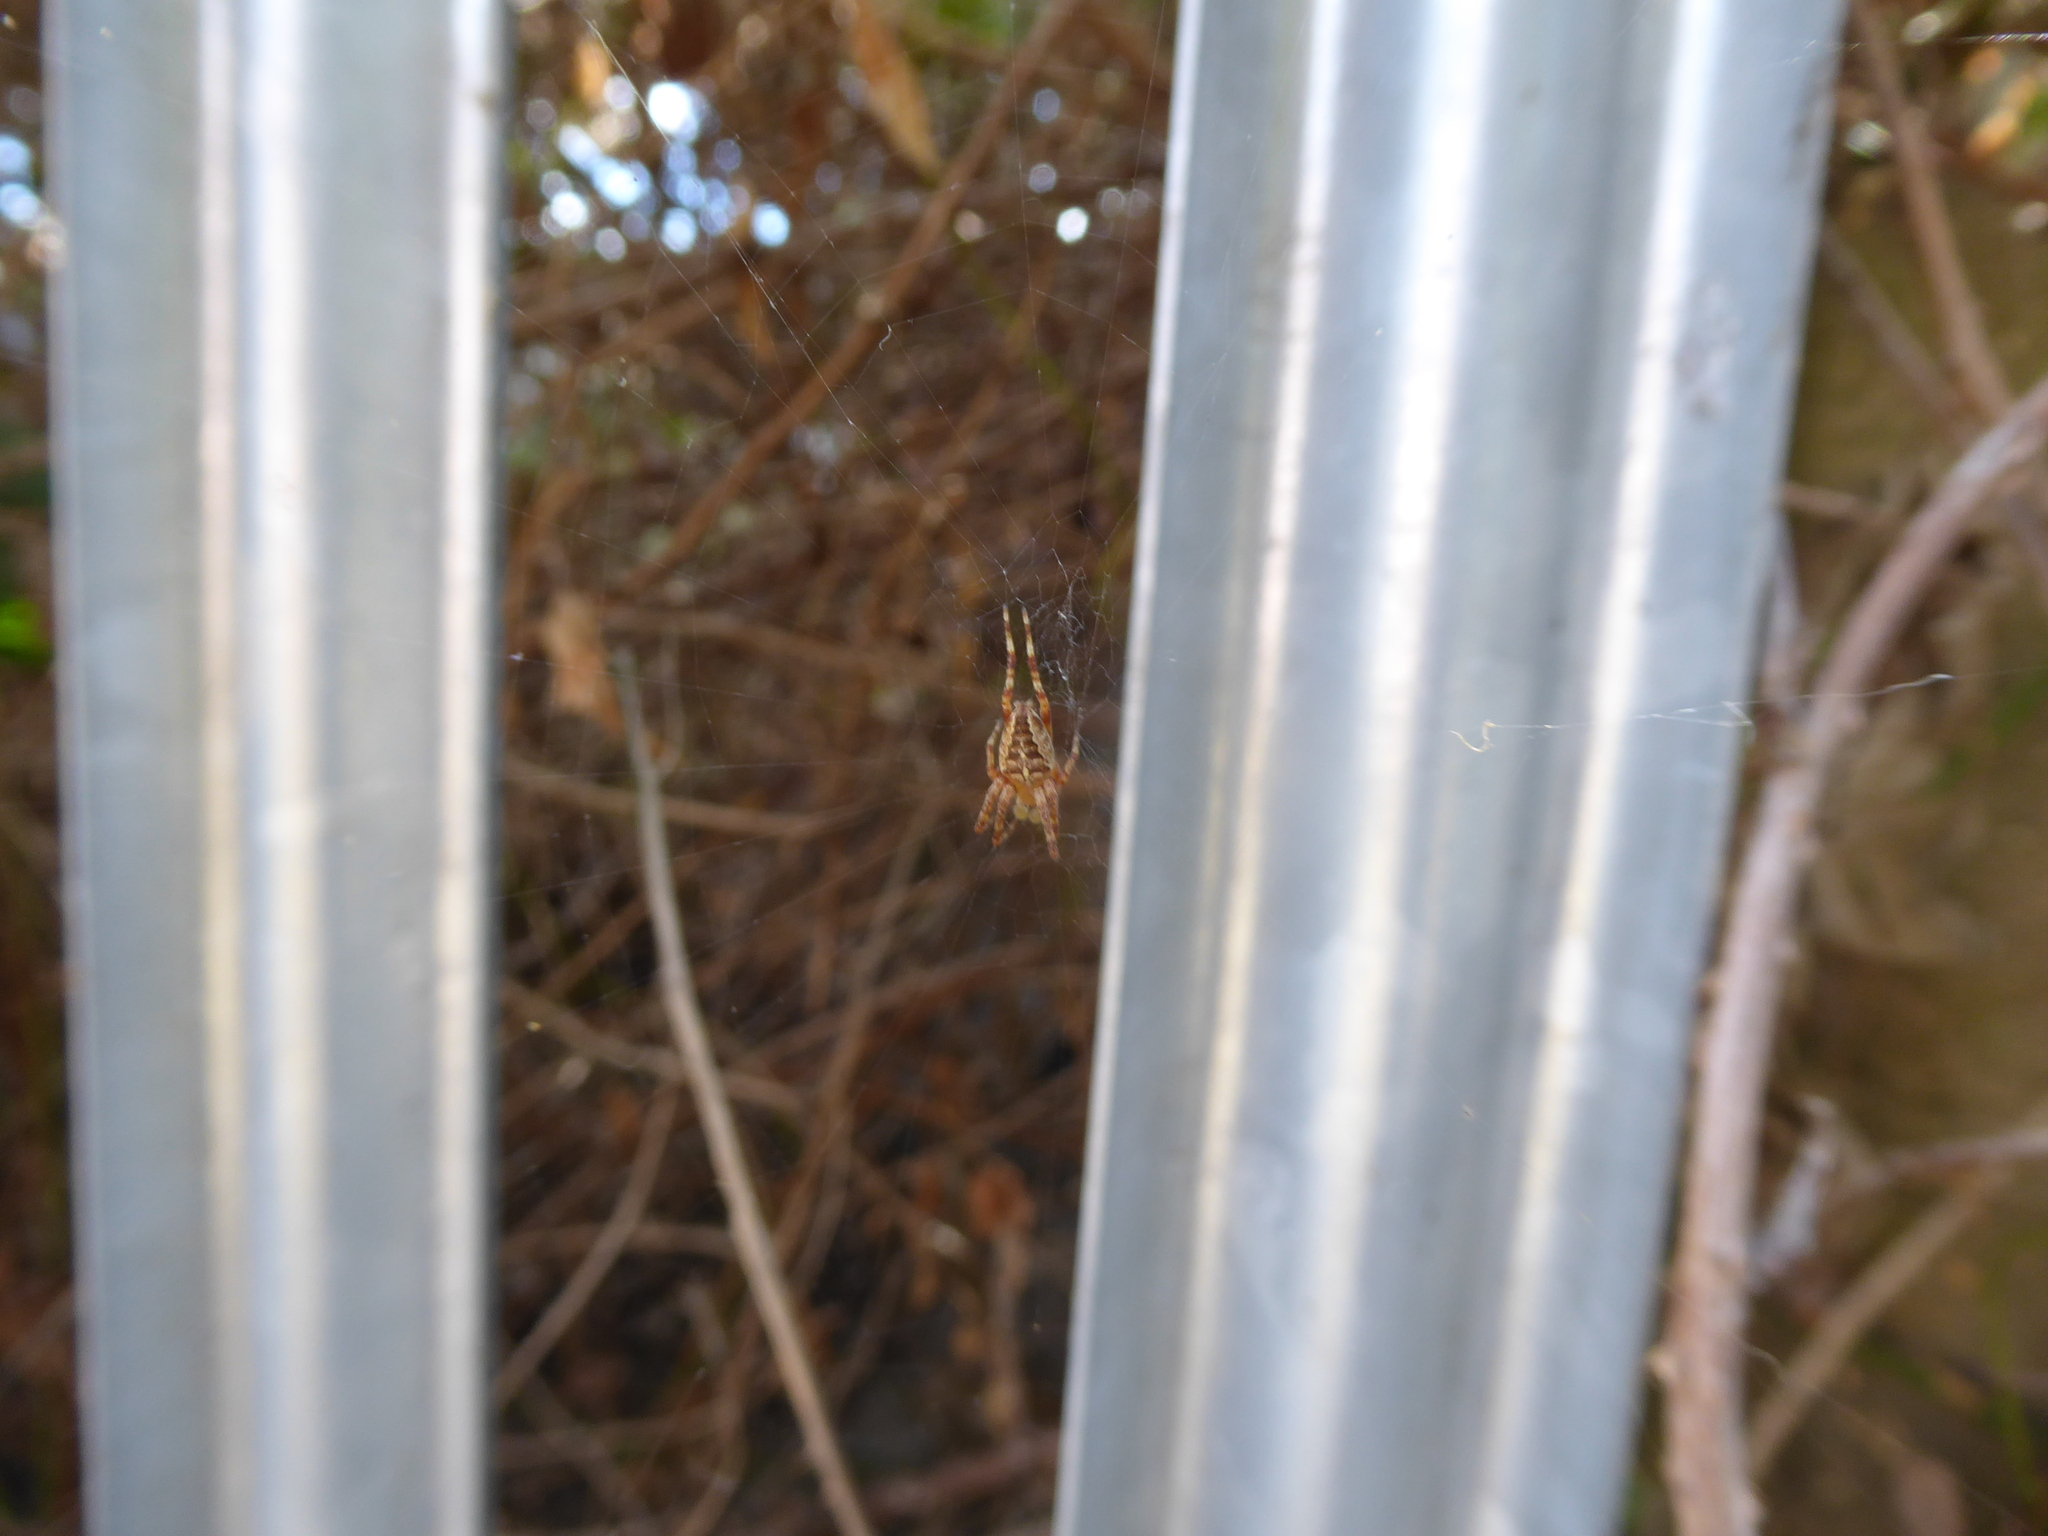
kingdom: Animalia
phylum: Arthropoda
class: Arachnida
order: Araneae
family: Araneidae
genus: Araneus
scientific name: Araneus diadematus
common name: Cross orbweaver
